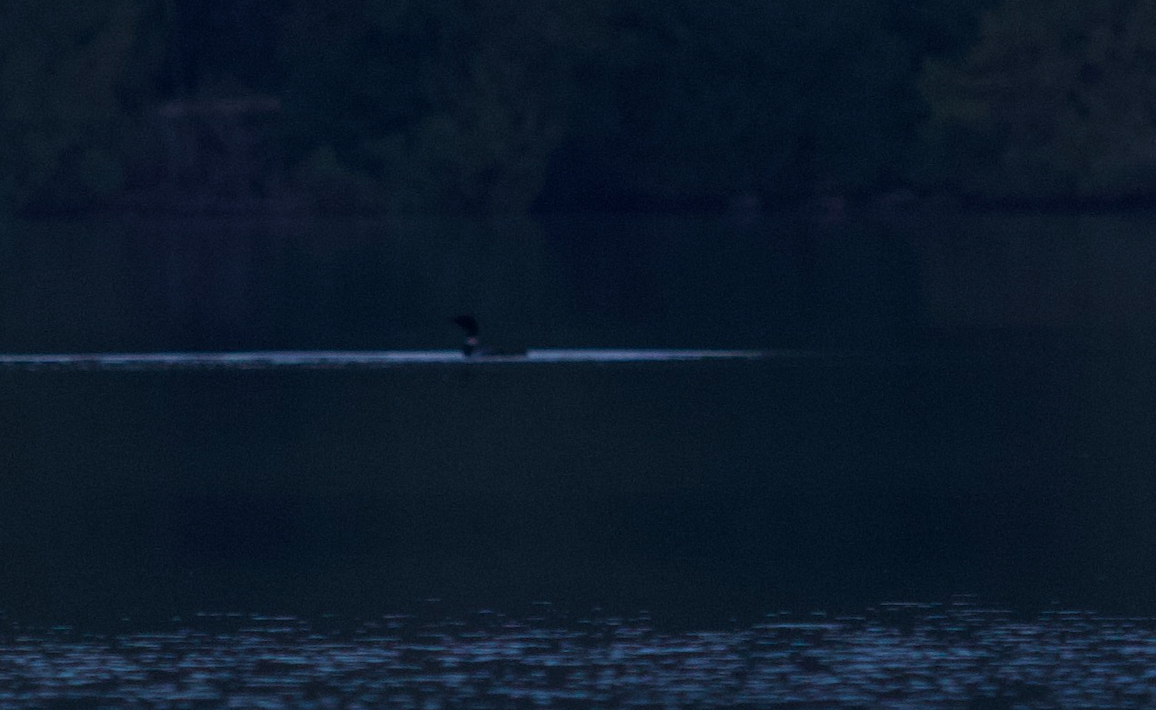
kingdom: Animalia
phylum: Chordata
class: Aves
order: Gaviiformes
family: Gaviidae
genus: Gavia
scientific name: Gavia immer
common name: Common loon
